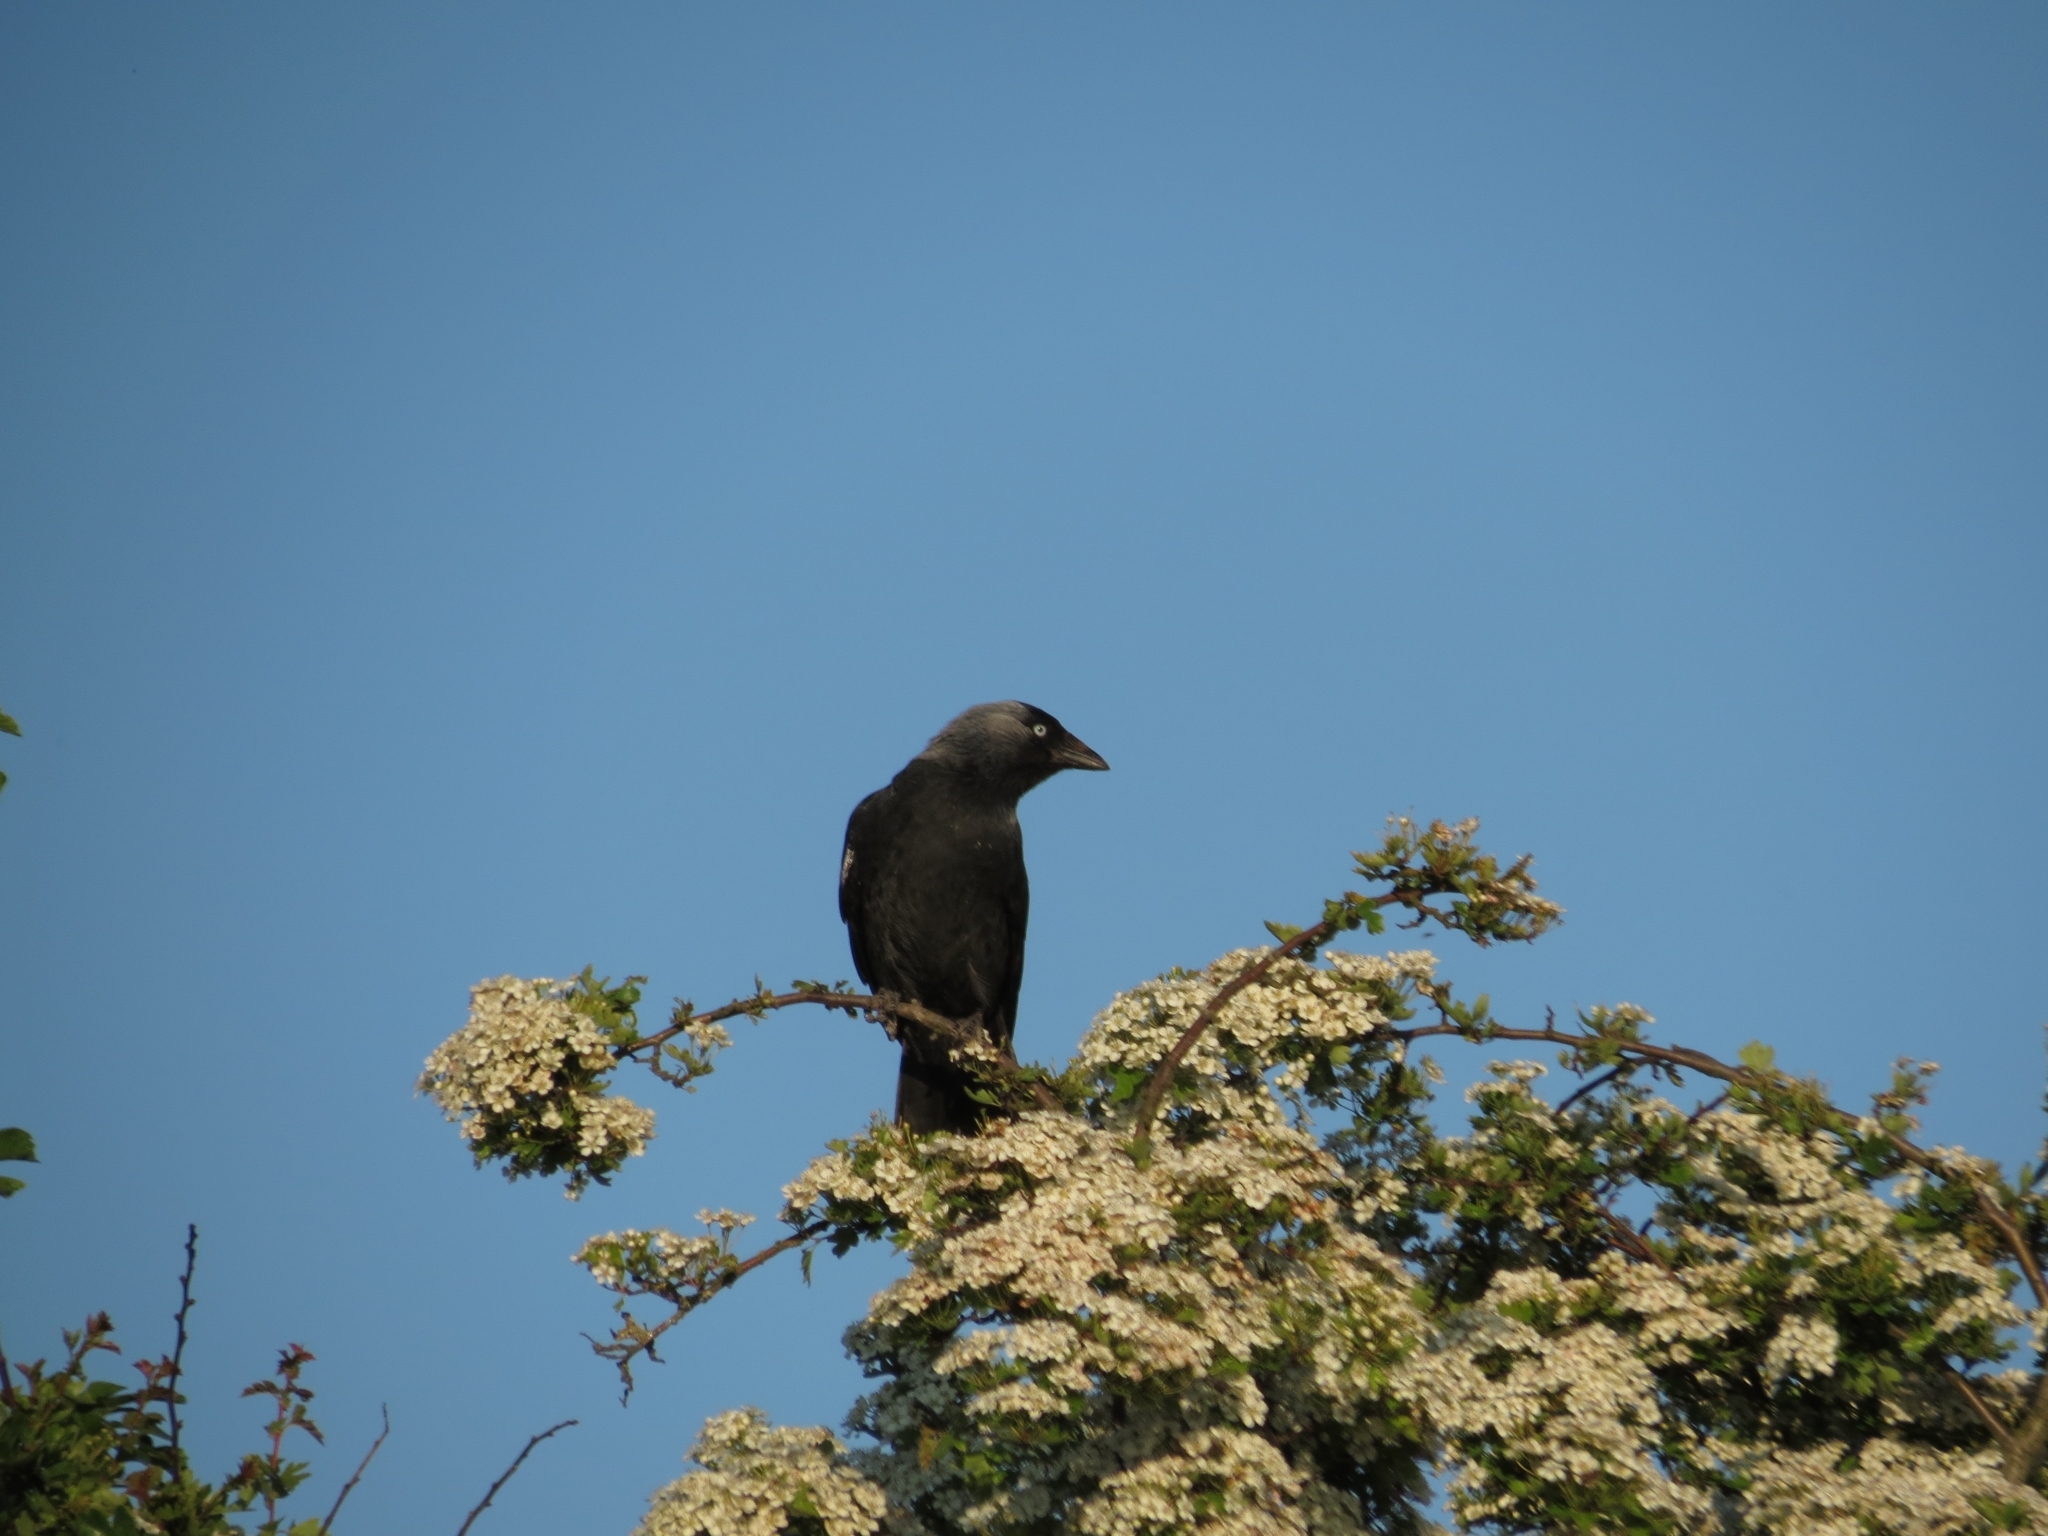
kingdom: Animalia
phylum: Chordata
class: Aves
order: Passeriformes
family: Corvidae
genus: Coloeus
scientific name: Coloeus monedula
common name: Western jackdaw
